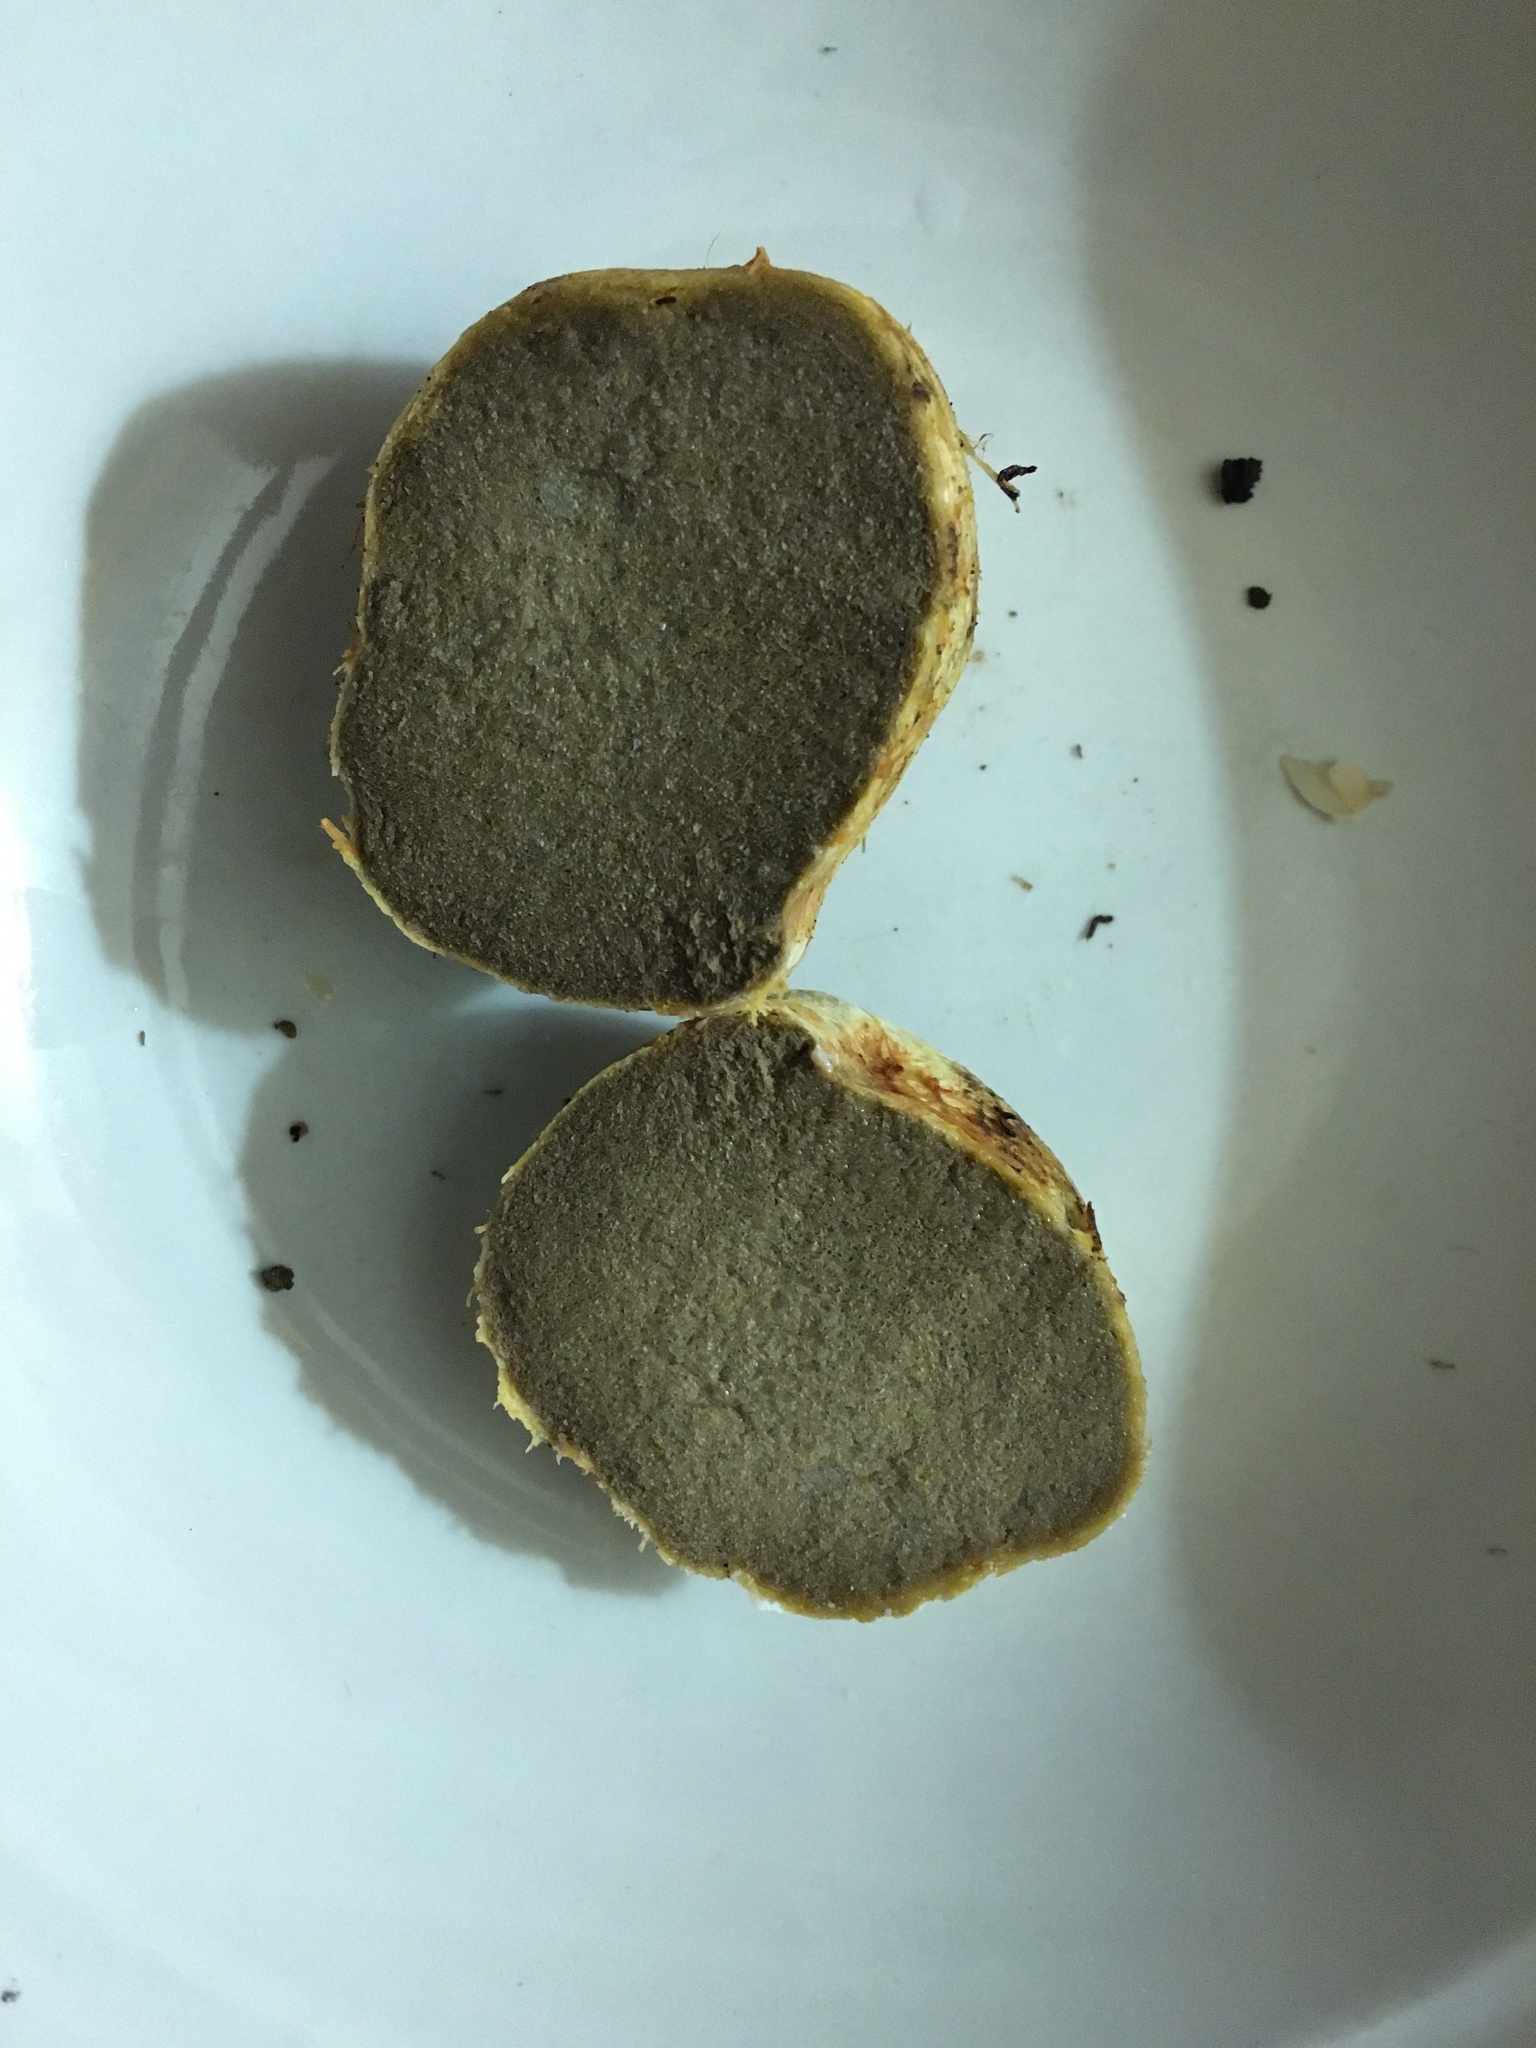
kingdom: Fungi
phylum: Basidiomycota
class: Agaricomycetes
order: Boletales
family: Rhizopogonaceae
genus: Rhizopogon
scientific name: Rhizopogon occidentalis
